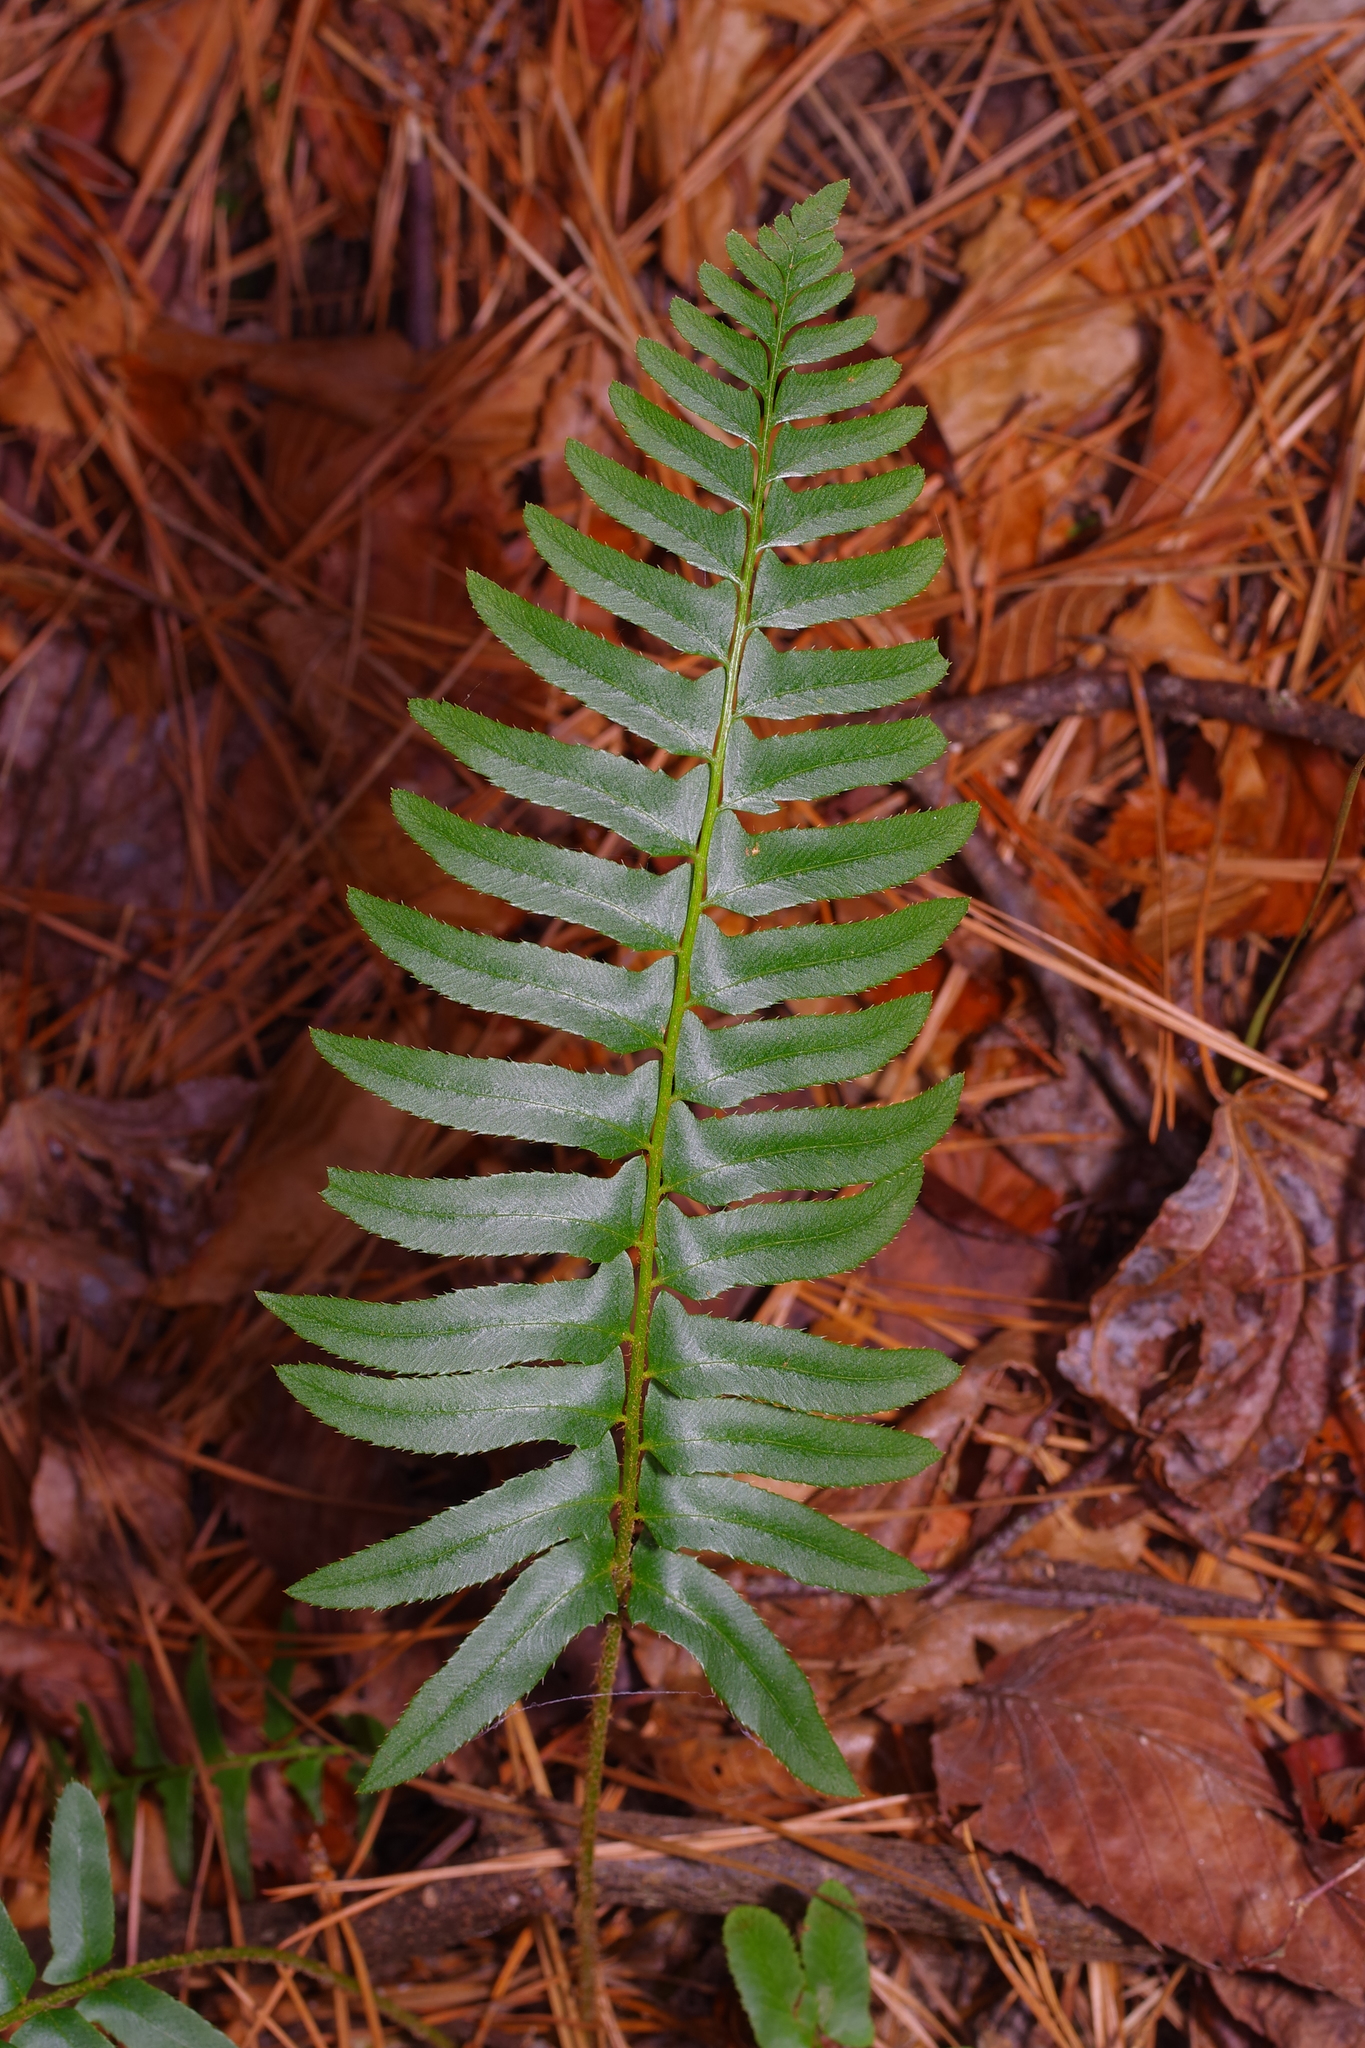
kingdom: Plantae
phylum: Tracheophyta
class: Polypodiopsida
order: Polypodiales
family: Dryopteridaceae
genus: Polystichum
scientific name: Polystichum acrostichoides
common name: Christmas fern
